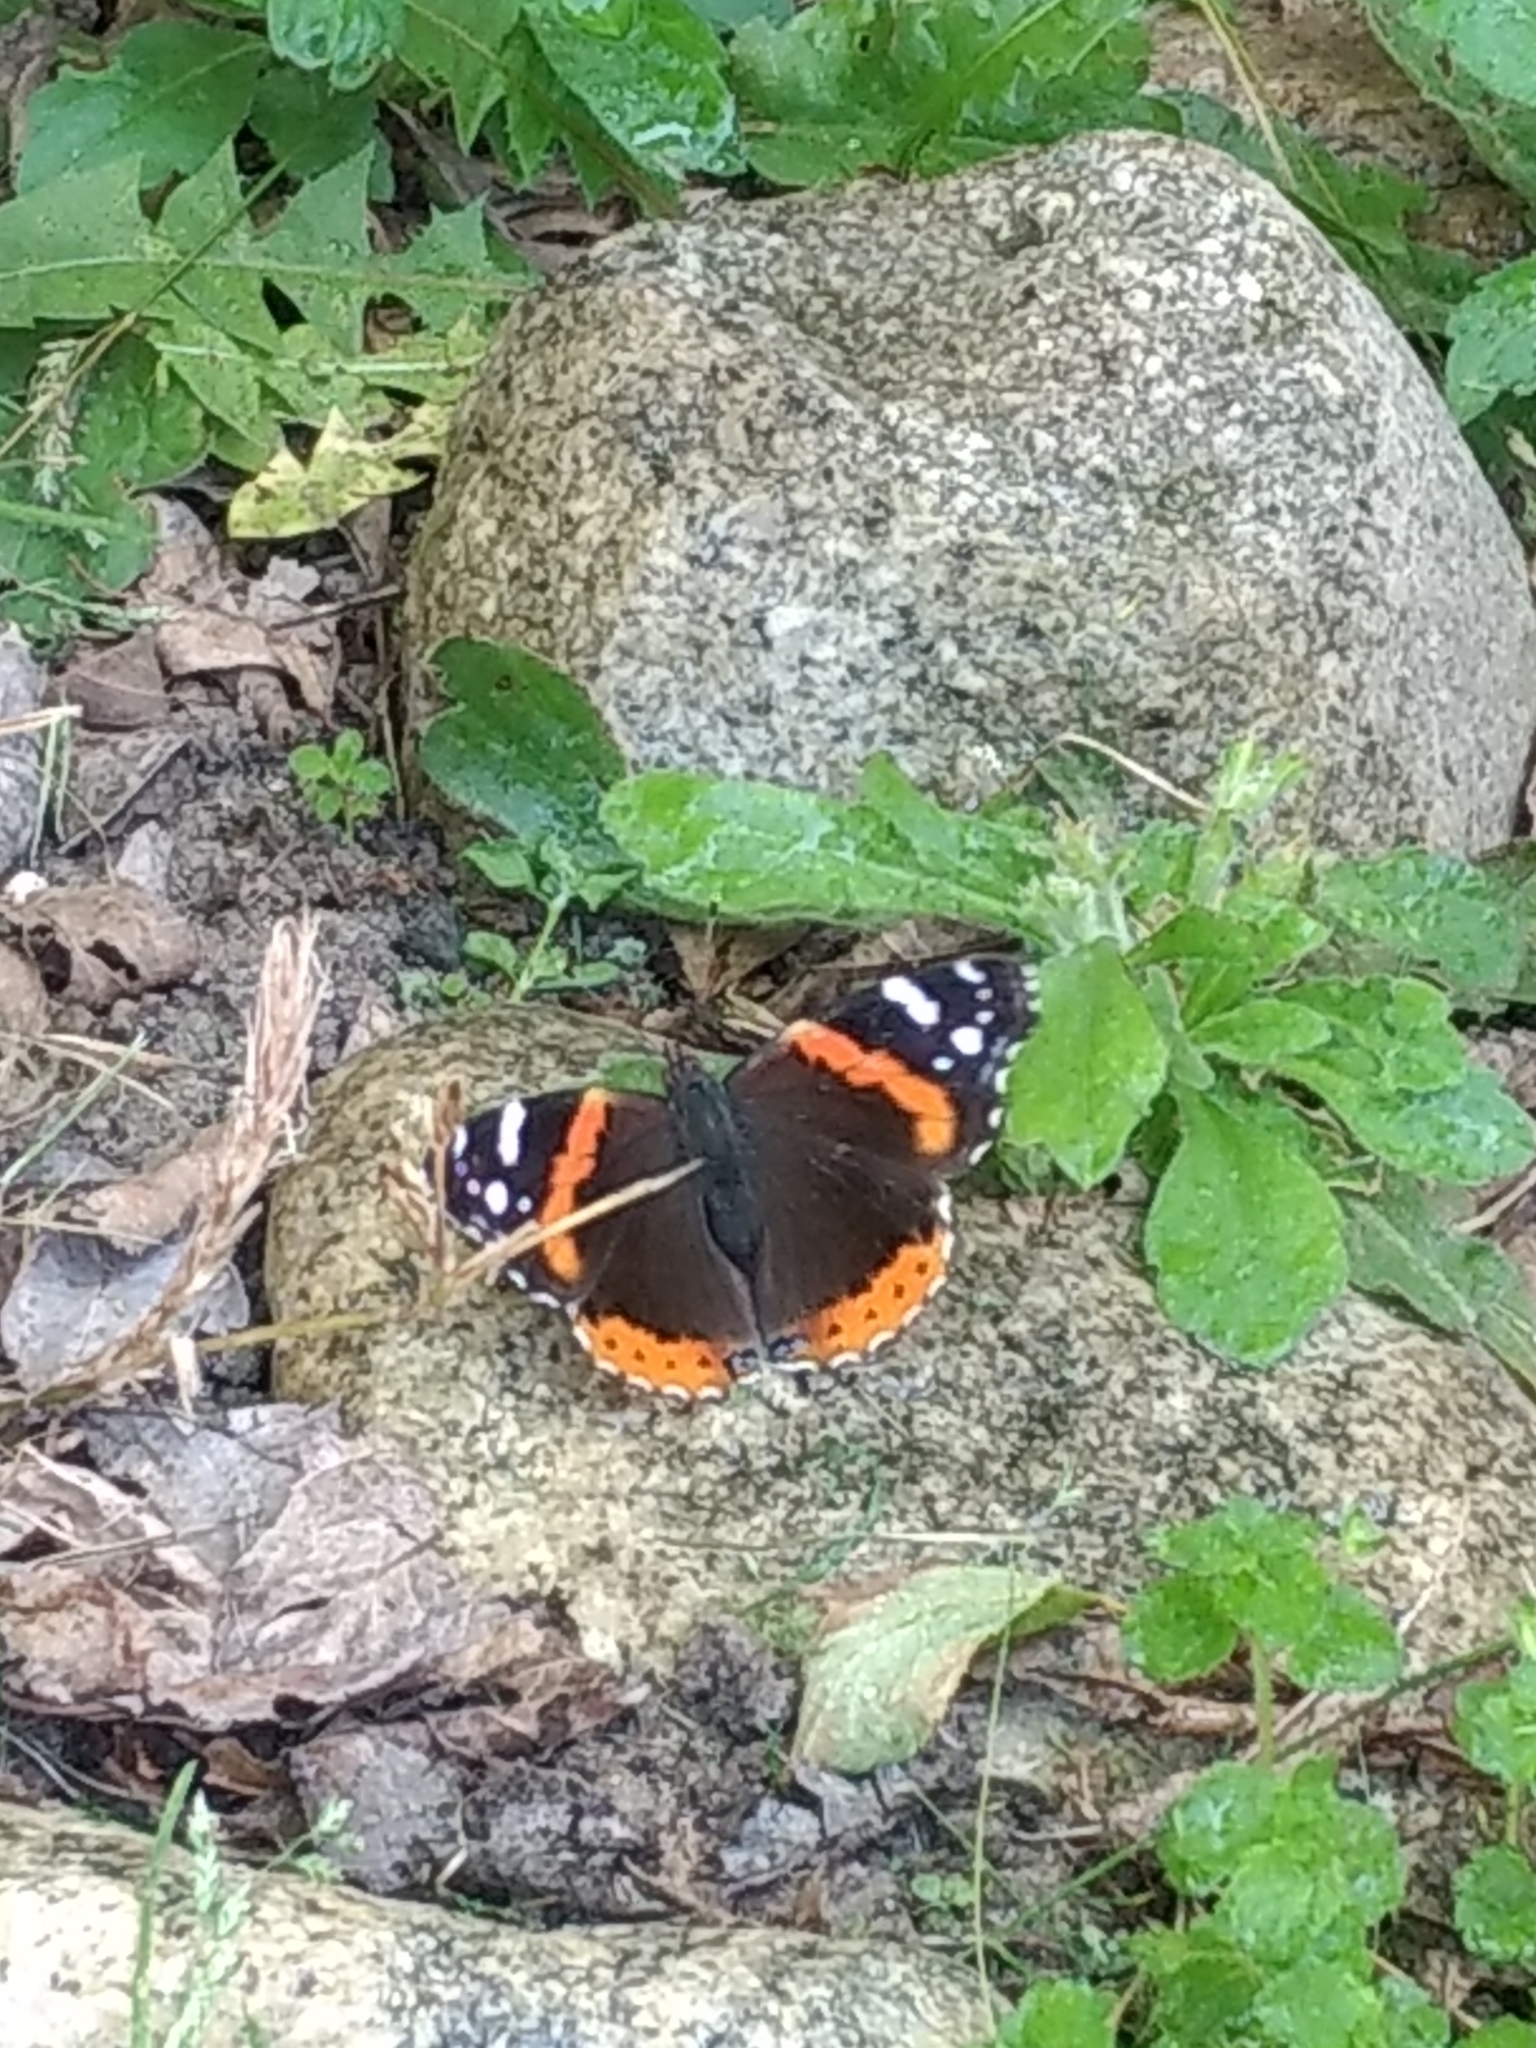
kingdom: Animalia
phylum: Arthropoda
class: Insecta
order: Lepidoptera
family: Nymphalidae
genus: Vanessa
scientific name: Vanessa atalanta
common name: Red admiral
